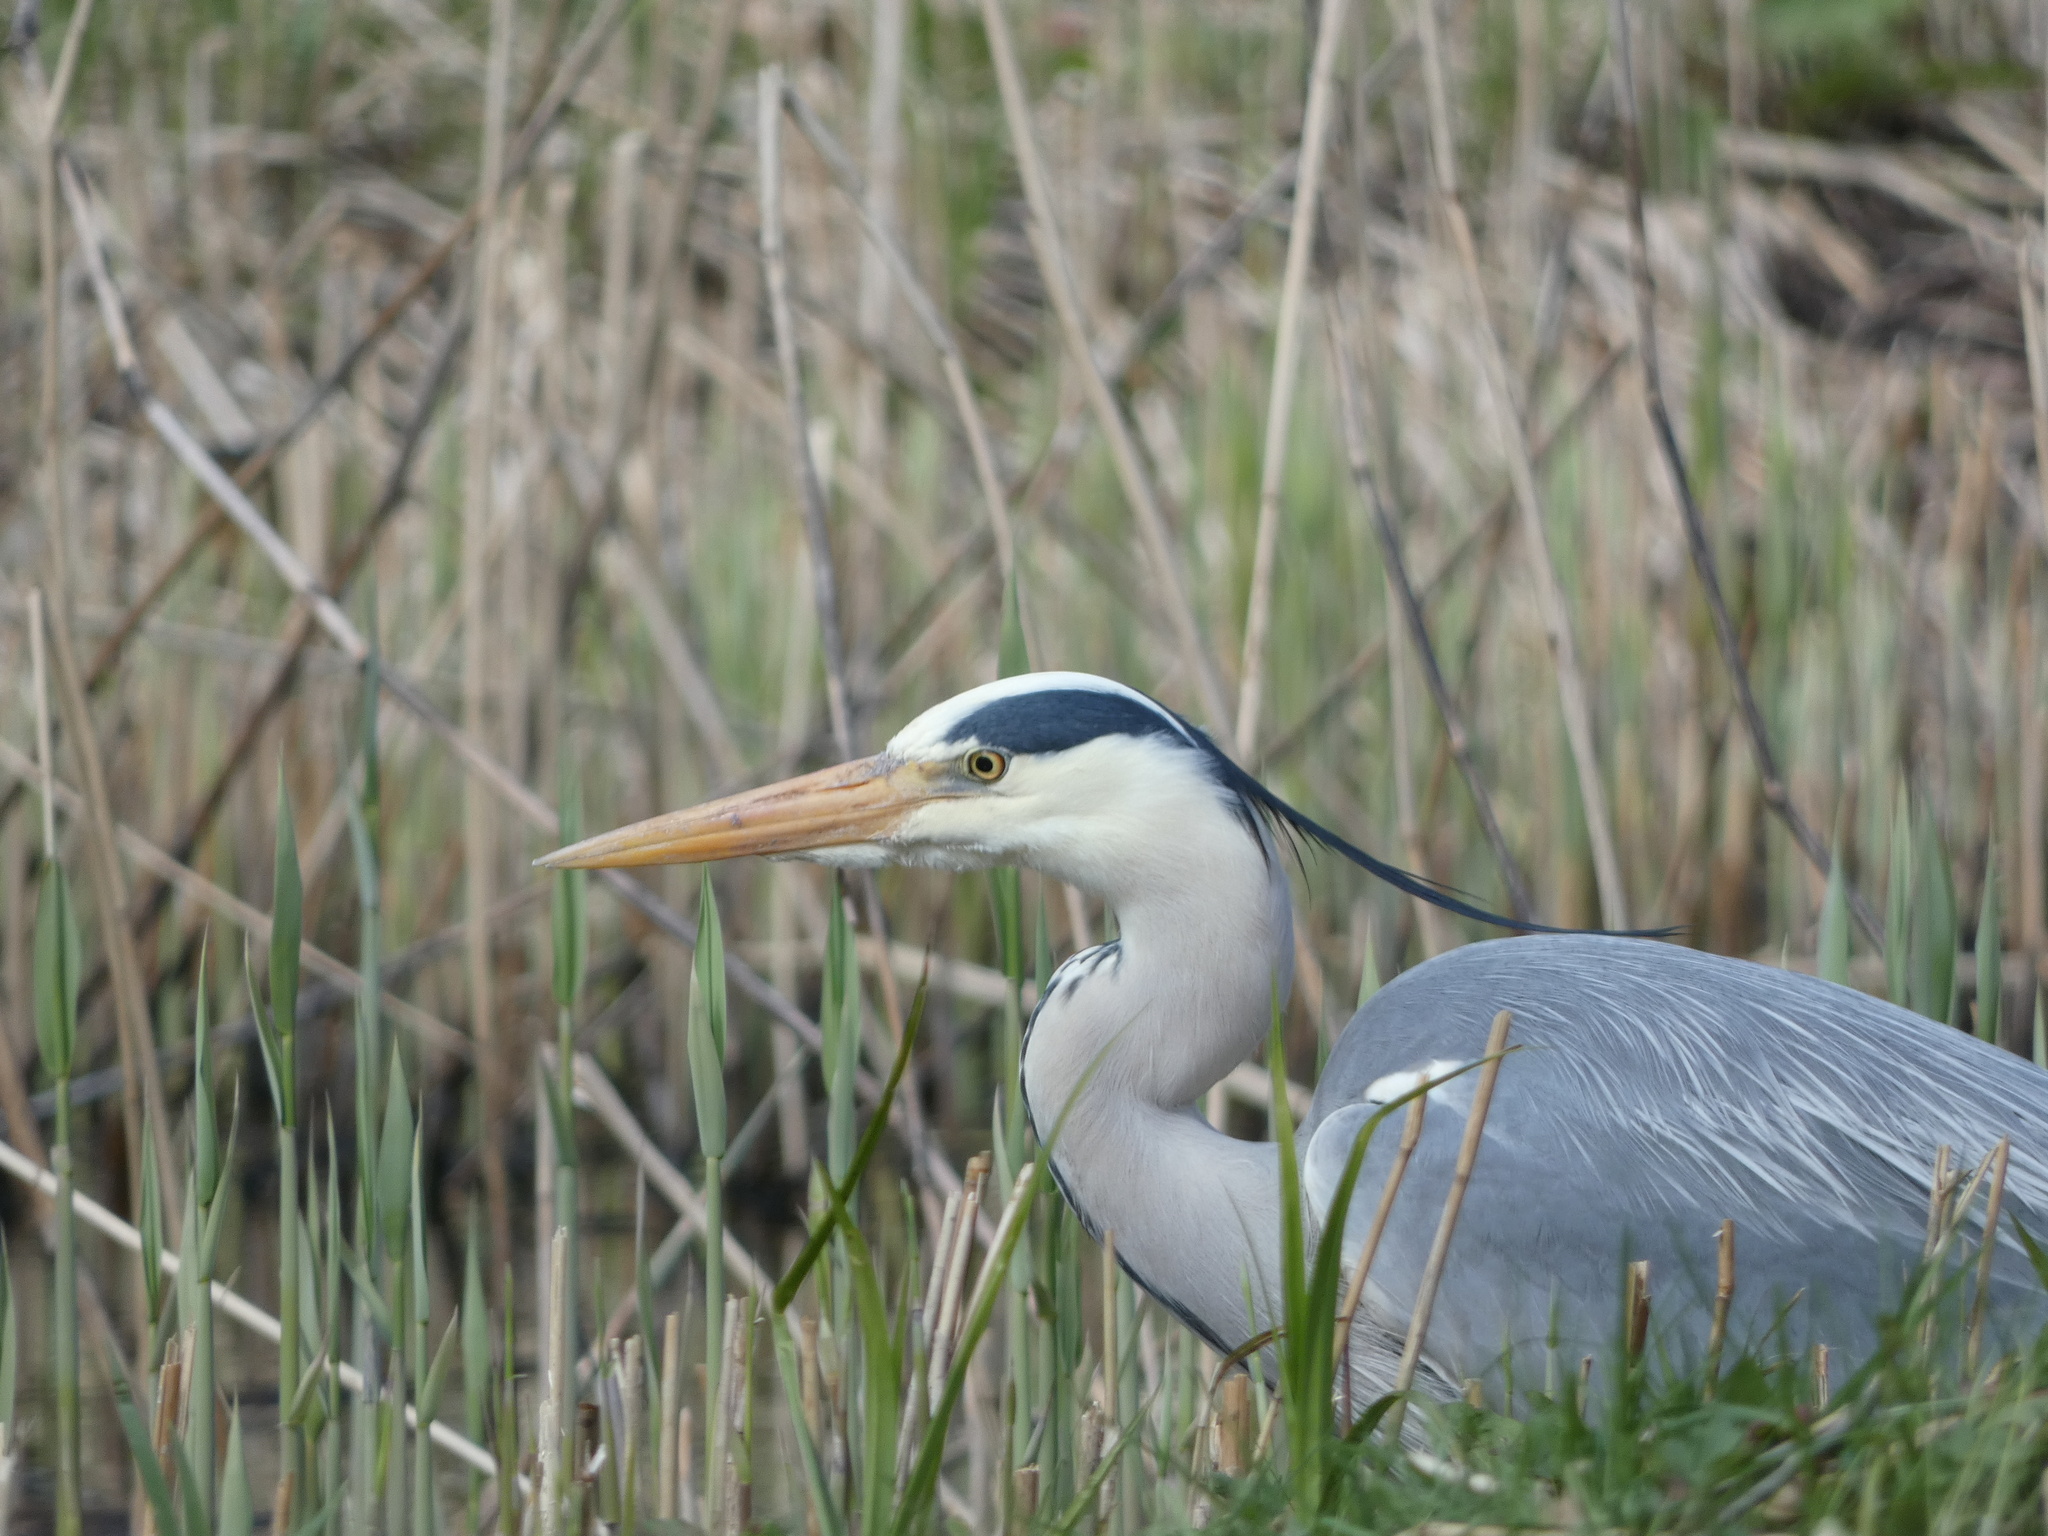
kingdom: Animalia
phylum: Chordata
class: Aves
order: Pelecaniformes
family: Ardeidae
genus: Ardea
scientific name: Ardea cinerea
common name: Grey heron
